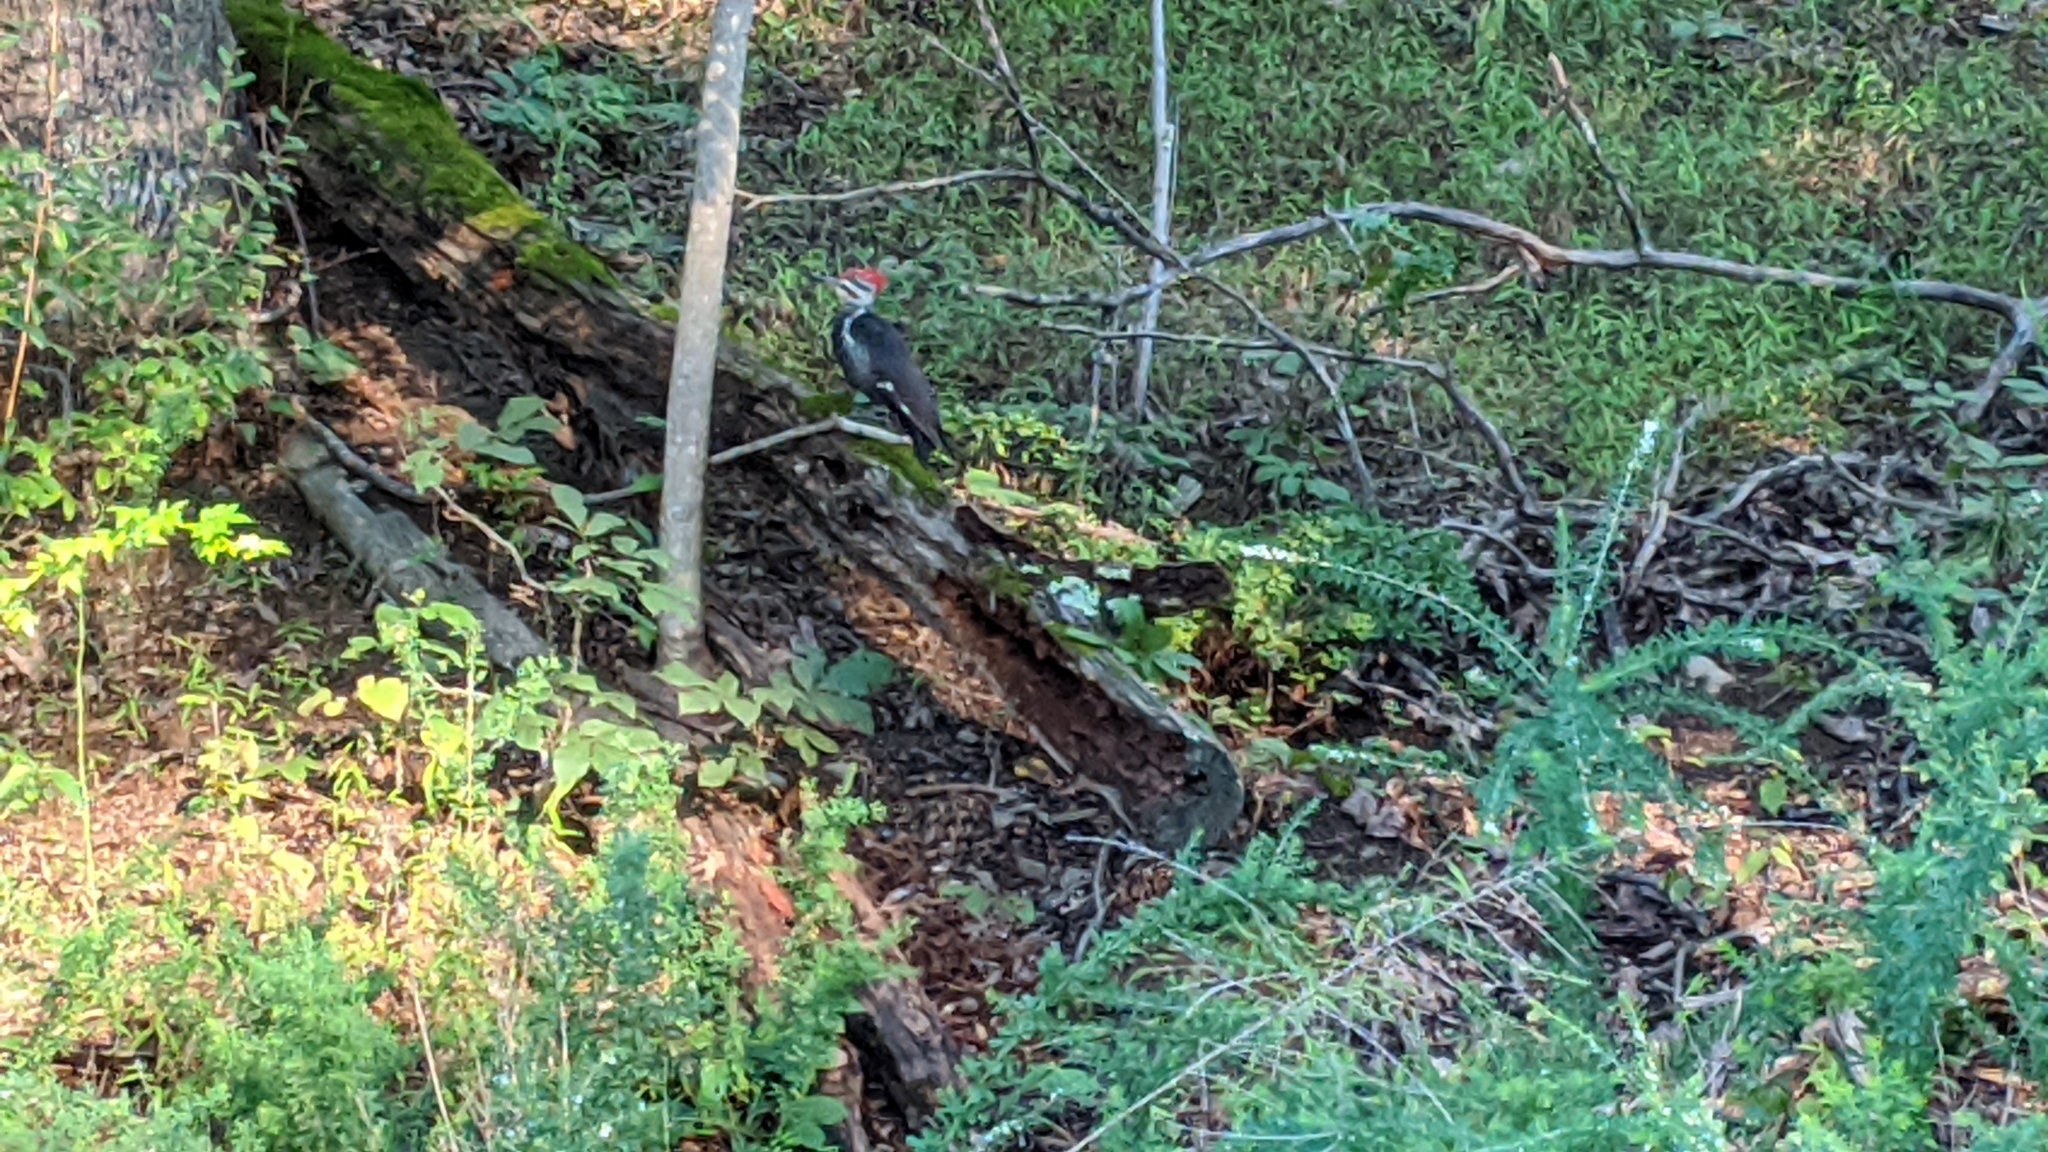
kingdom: Animalia
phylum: Chordata
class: Aves
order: Piciformes
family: Picidae
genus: Dryocopus
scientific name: Dryocopus pileatus
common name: Pileated woodpecker
